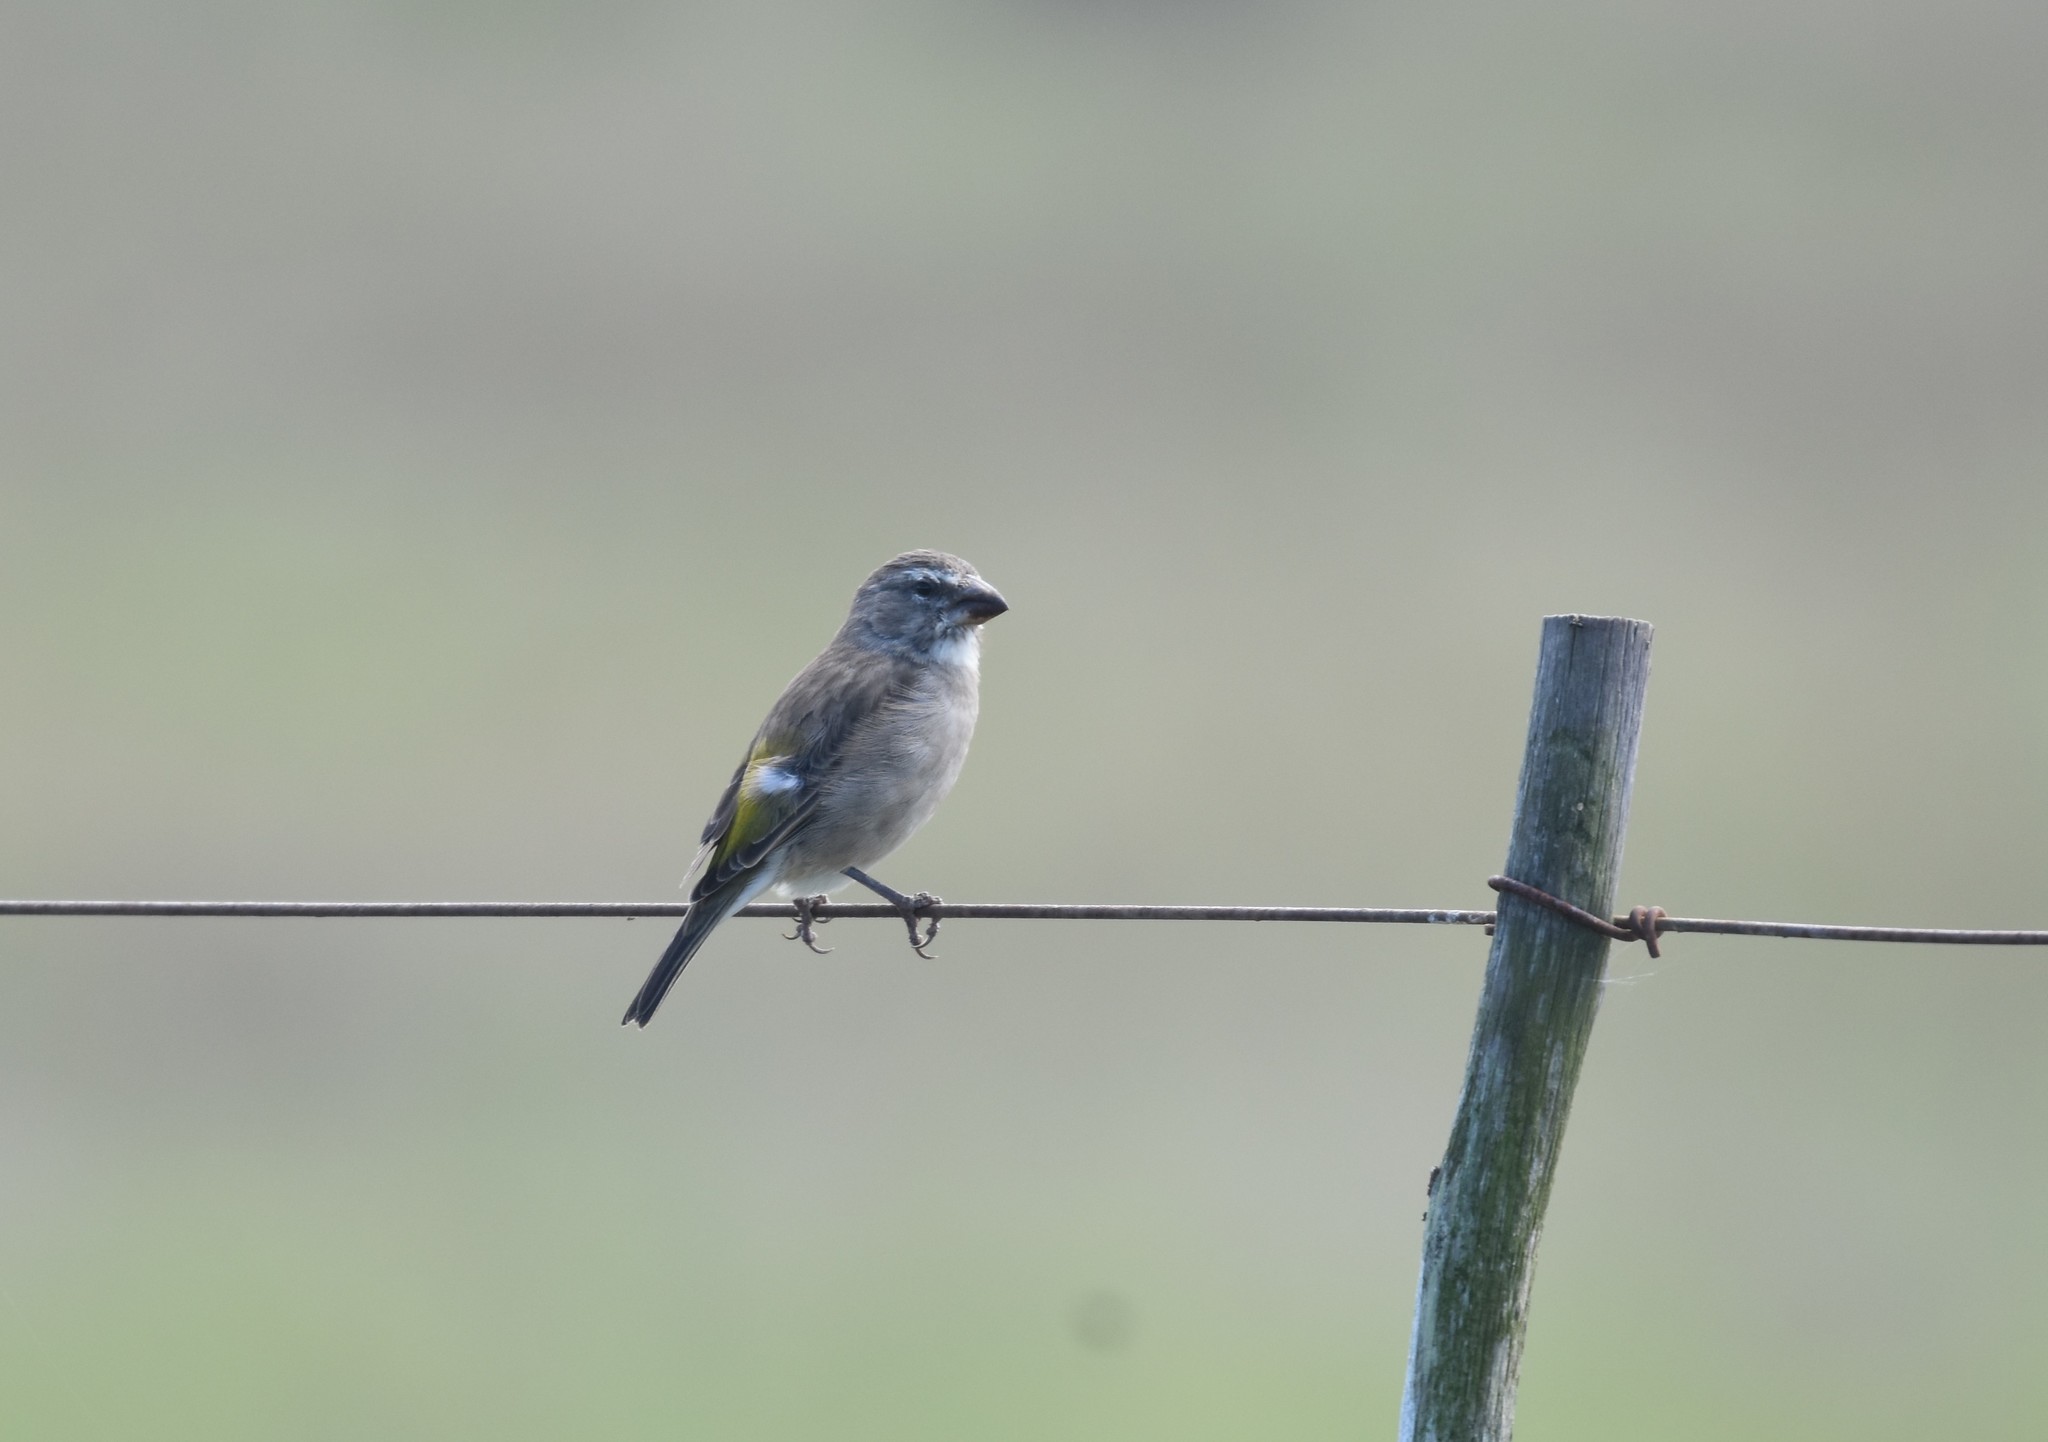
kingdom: Animalia
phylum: Chordata
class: Aves
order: Passeriformes
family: Fringillidae
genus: Crithagra
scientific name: Crithagra albogularis
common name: White-throated canary
